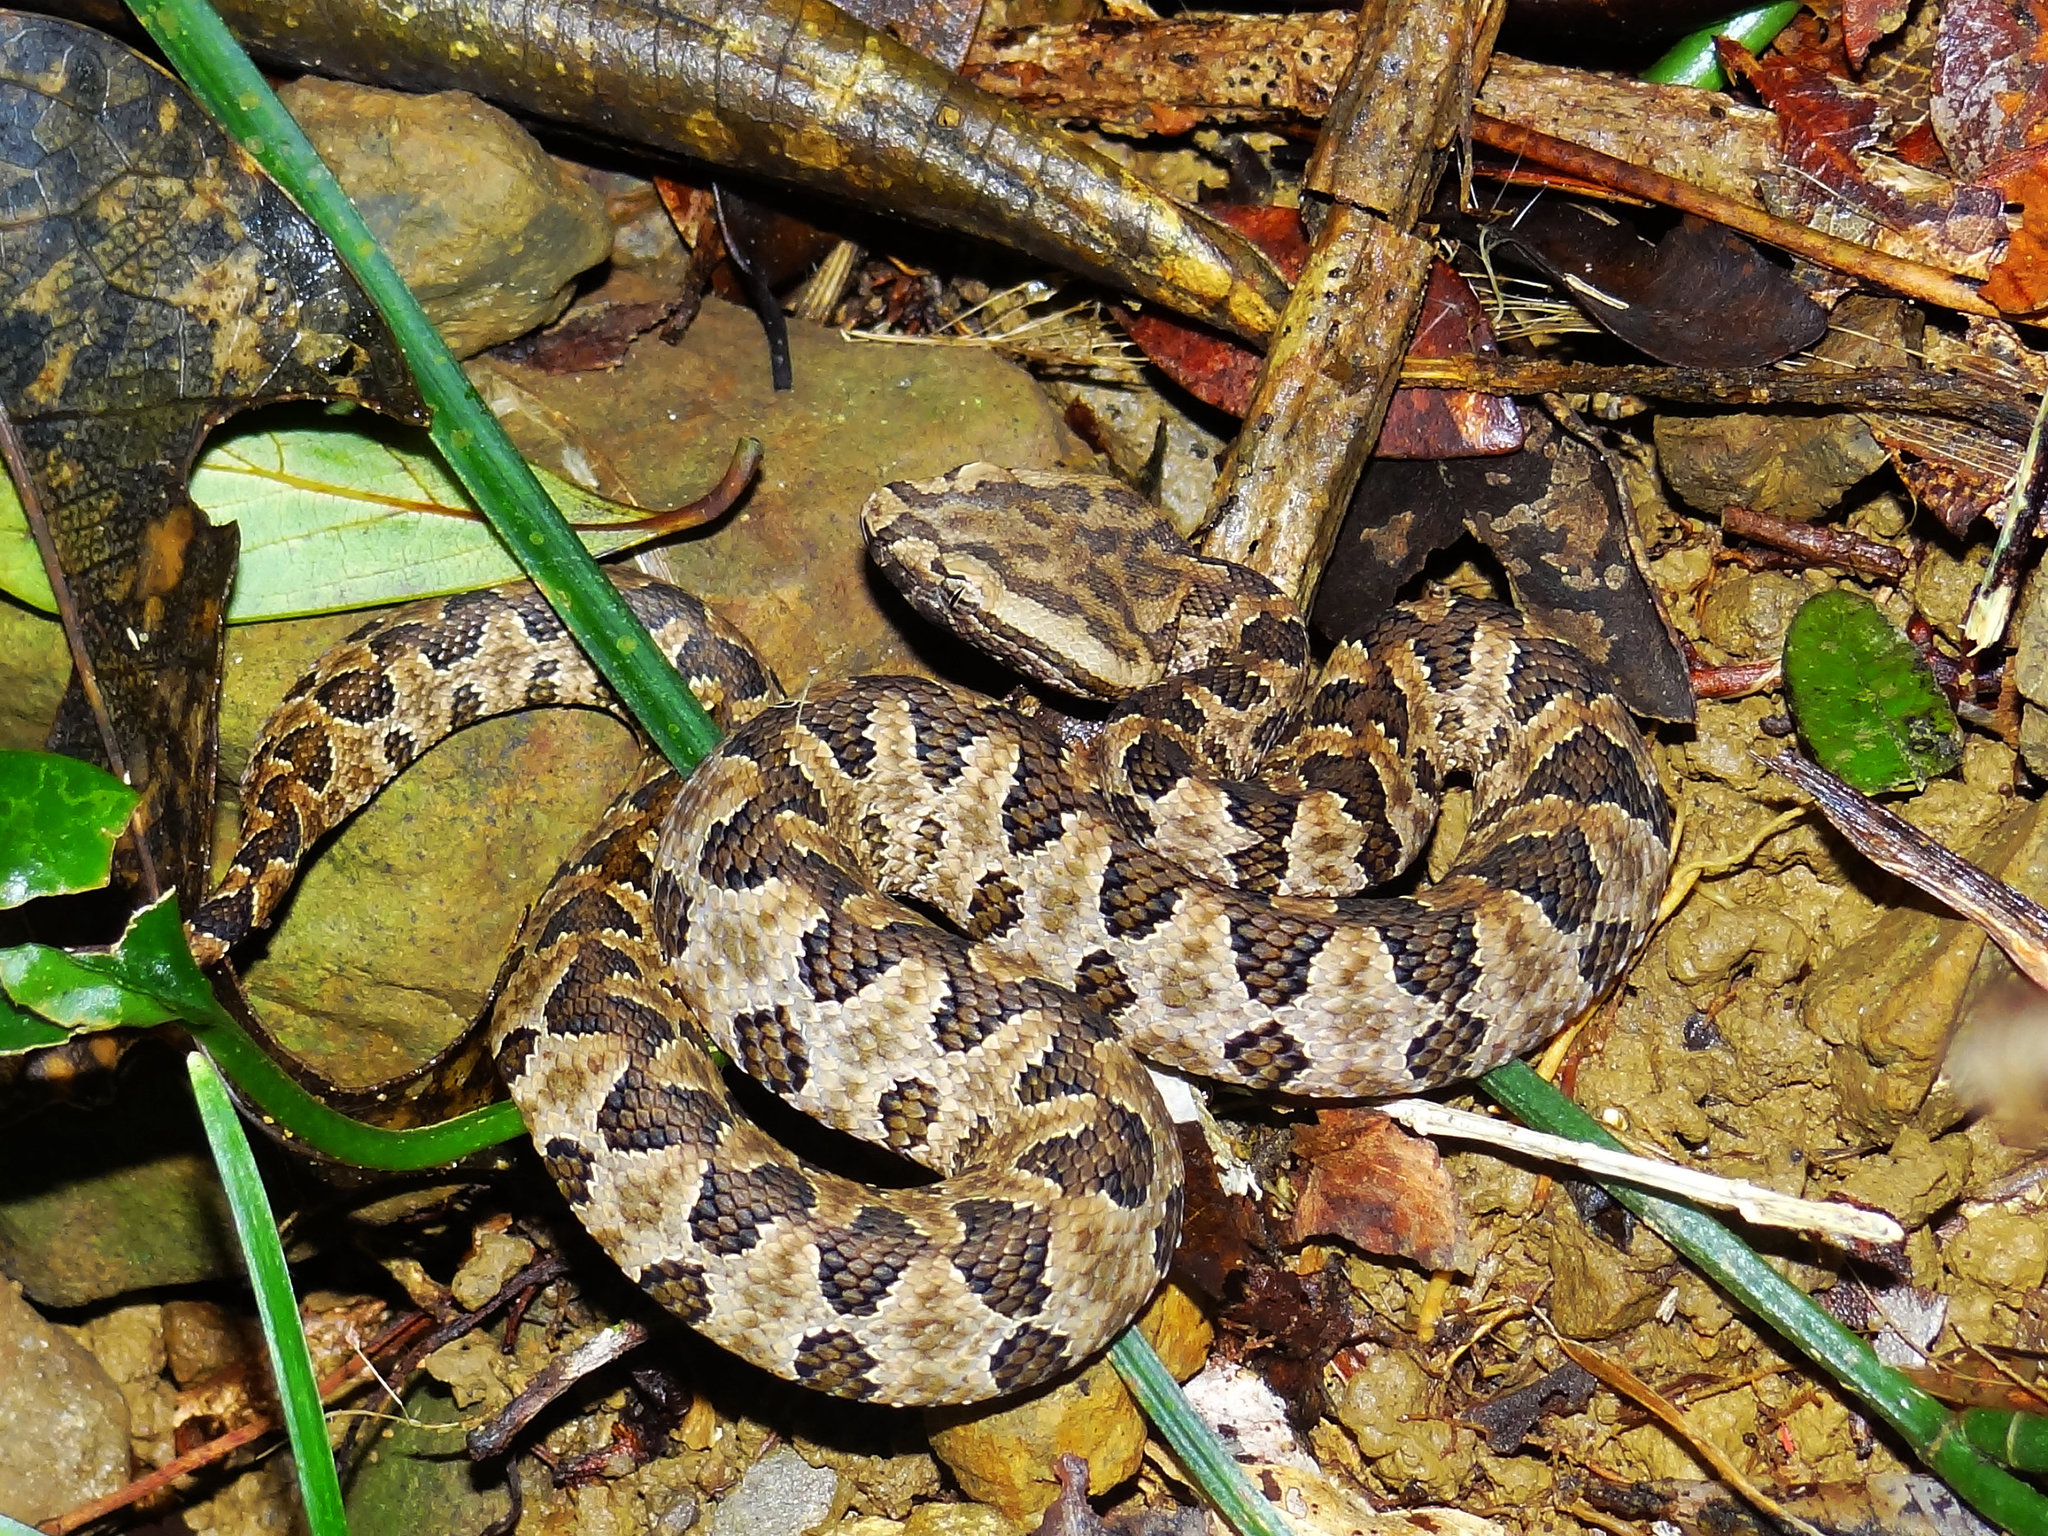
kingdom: Animalia
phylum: Chordata
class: Squamata
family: Viperidae
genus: Protobothrops
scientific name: Protobothrops mucrosquamatus
